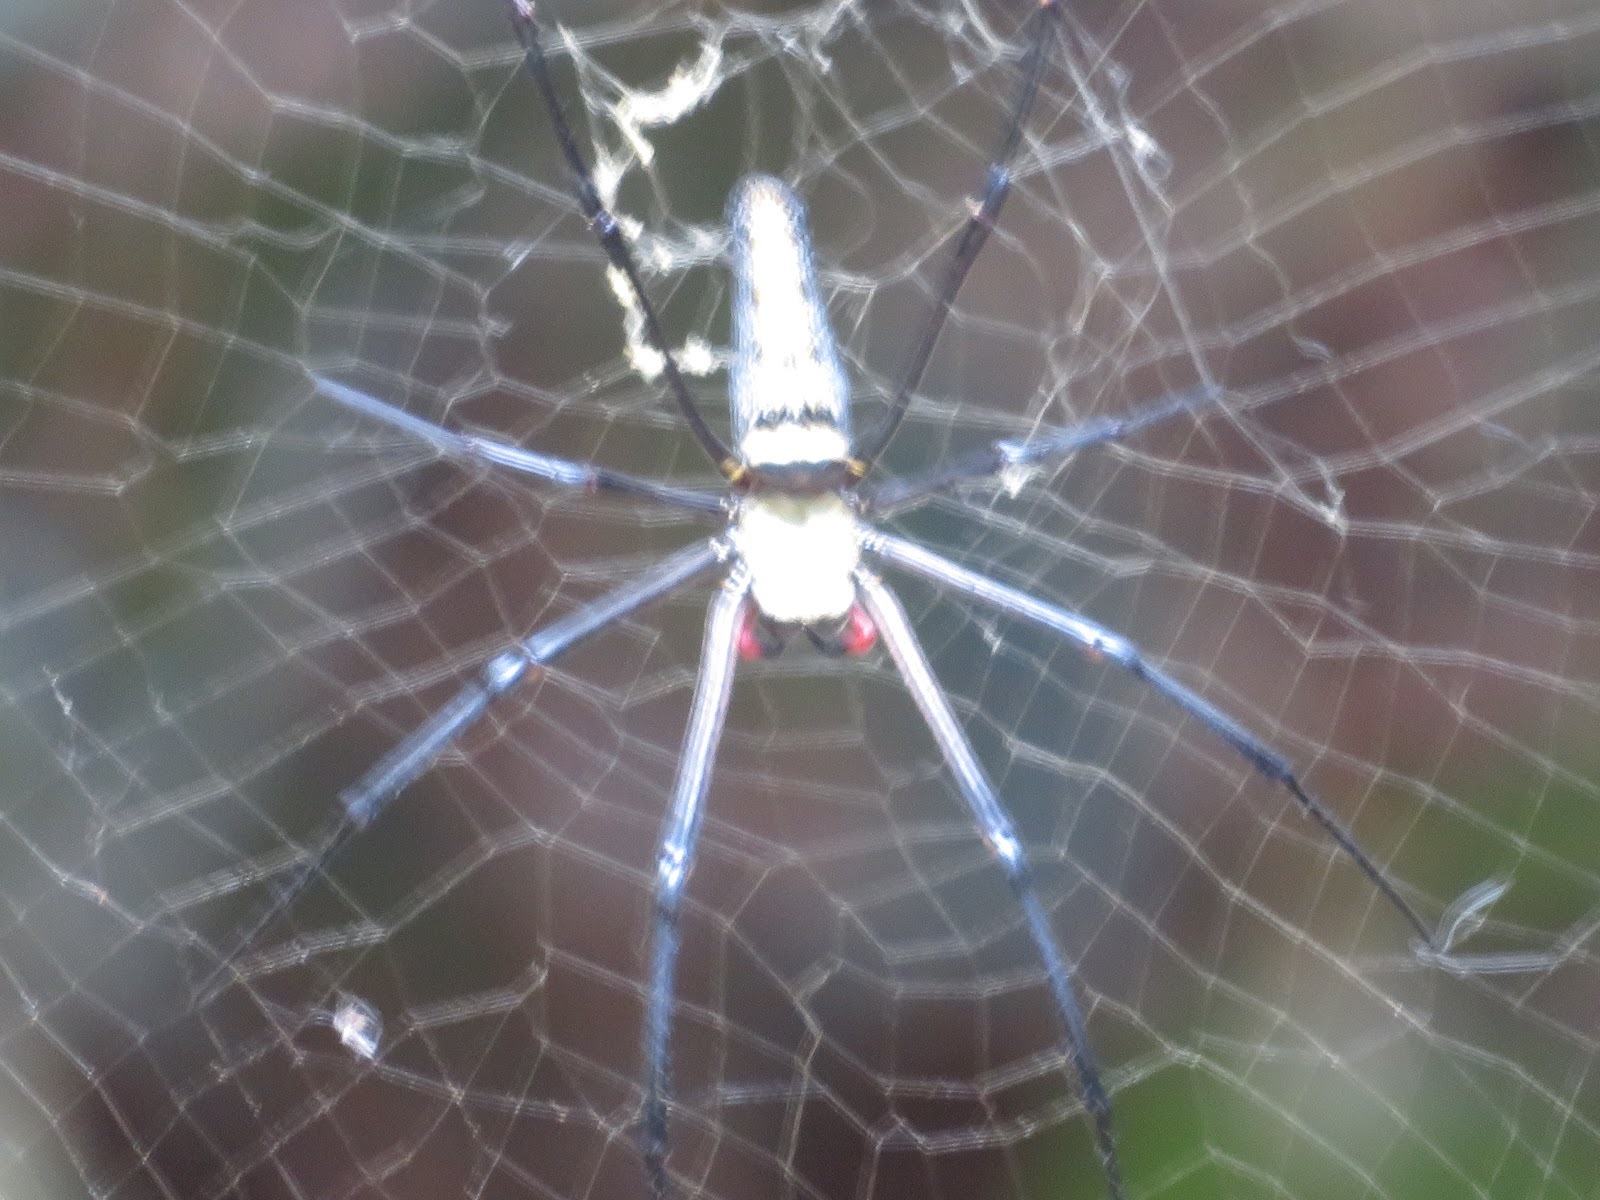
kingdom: Animalia
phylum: Arthropoda
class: Arachnida
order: Araneae
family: Araneidae
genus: Nephila
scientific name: Nephila pilipes
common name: Giant golden orb weaver
